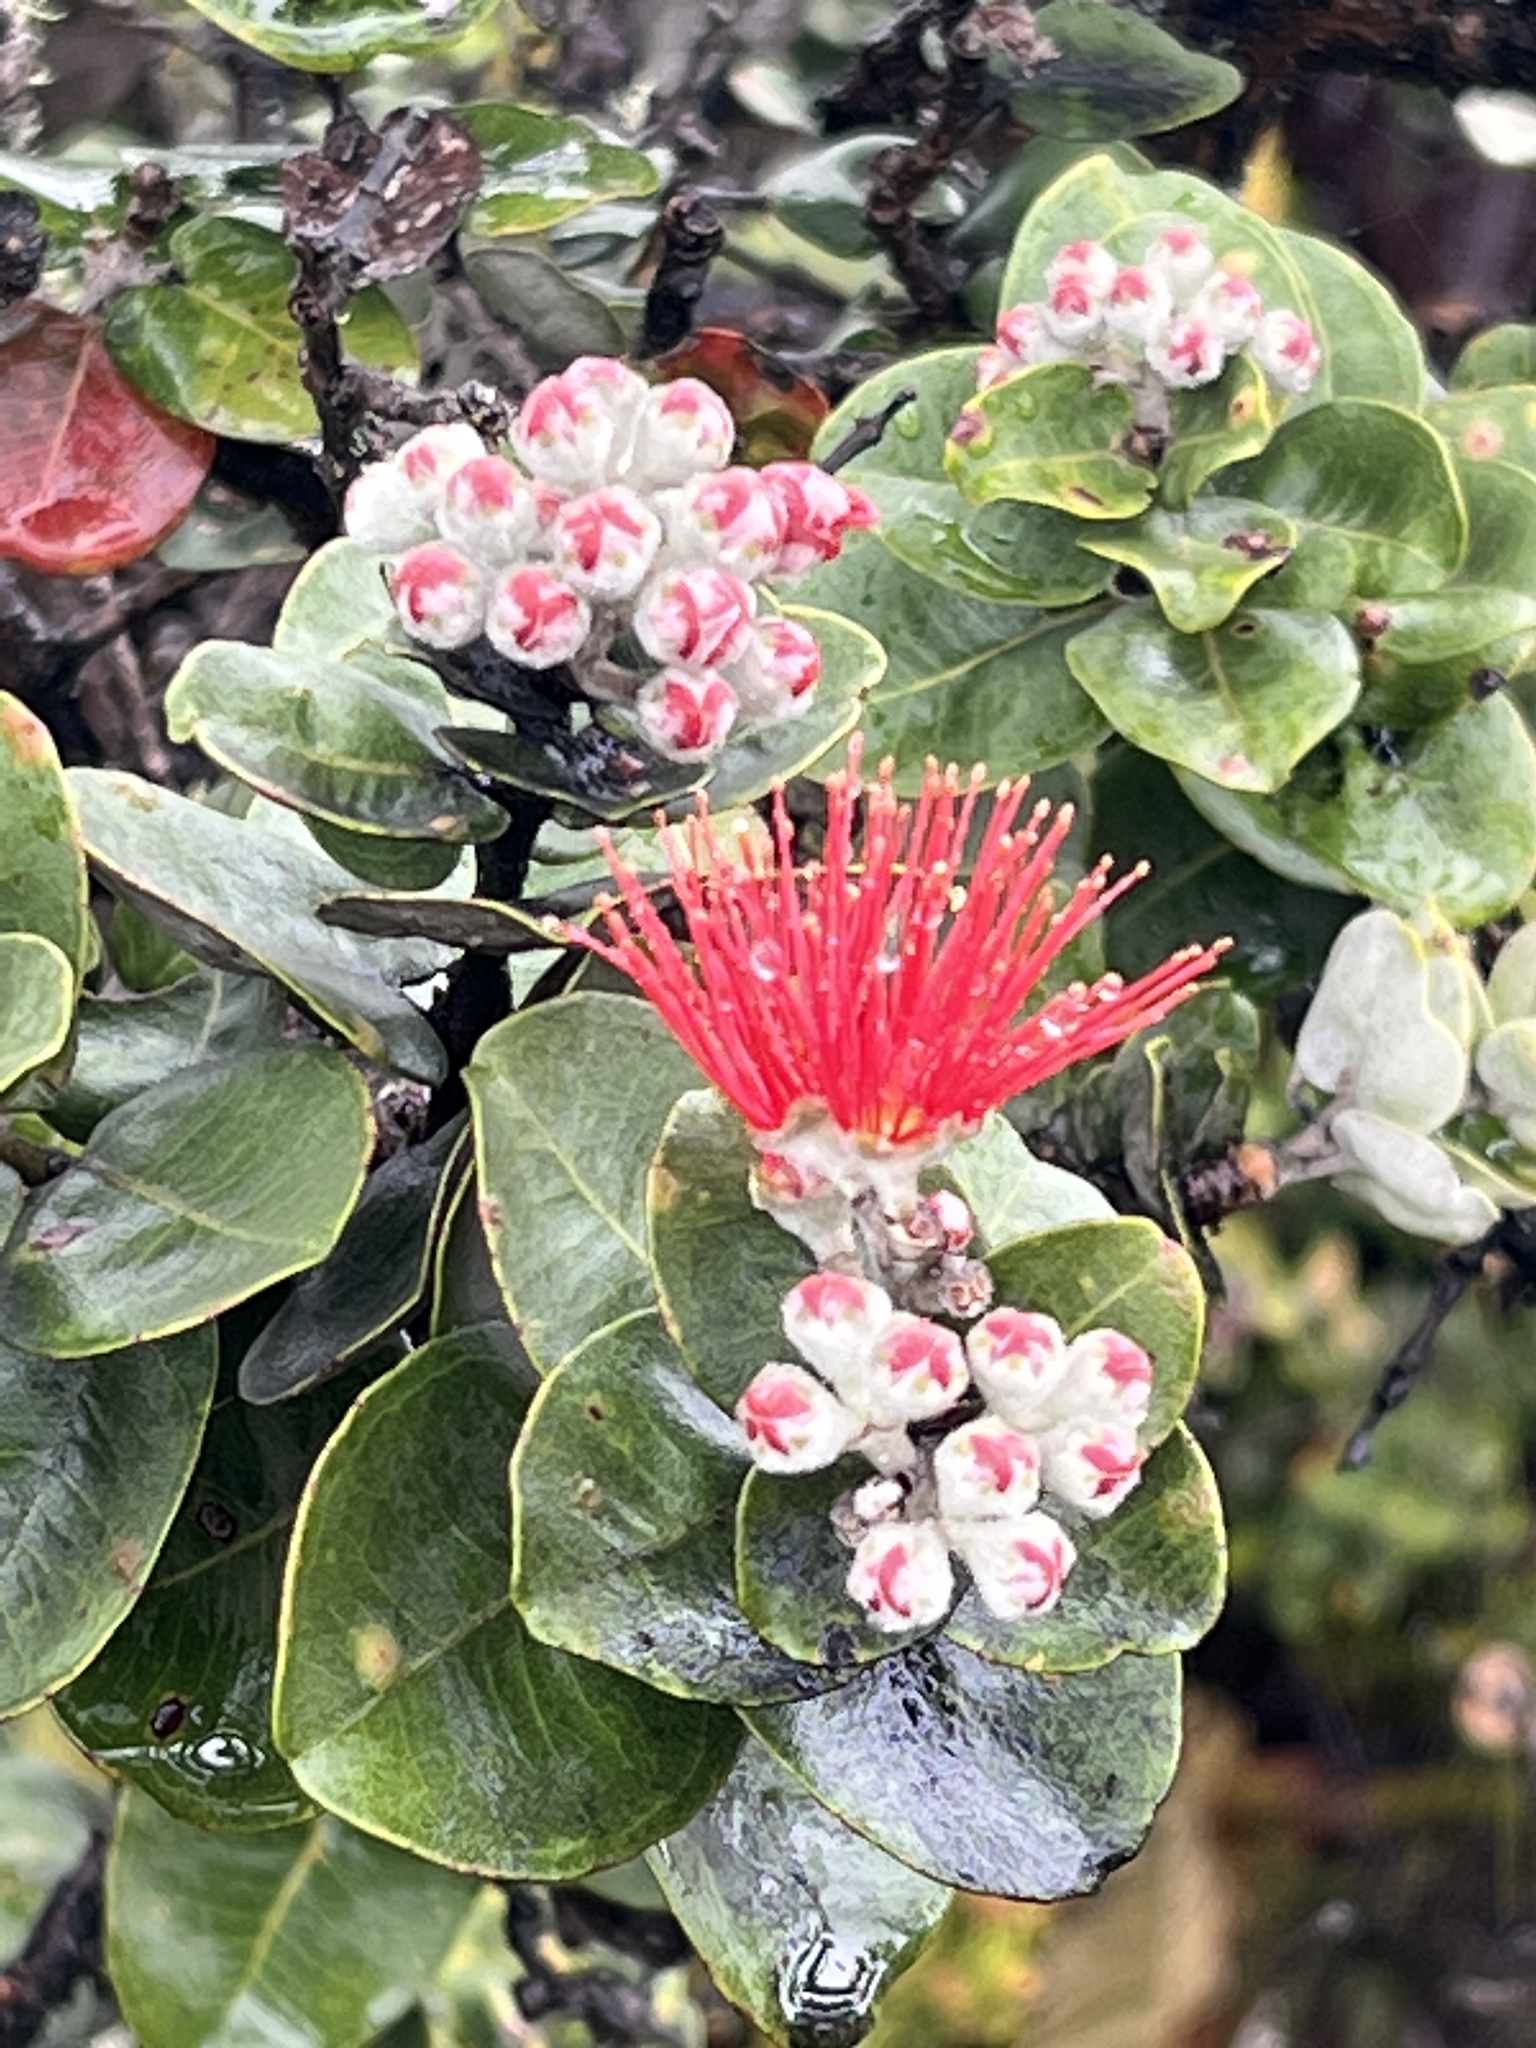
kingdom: Plantae
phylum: Tracheophyta
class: Magnoliopsida
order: Myrtales
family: Myrtaceae
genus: Metrosideros
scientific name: Metrosideros polymorpha
